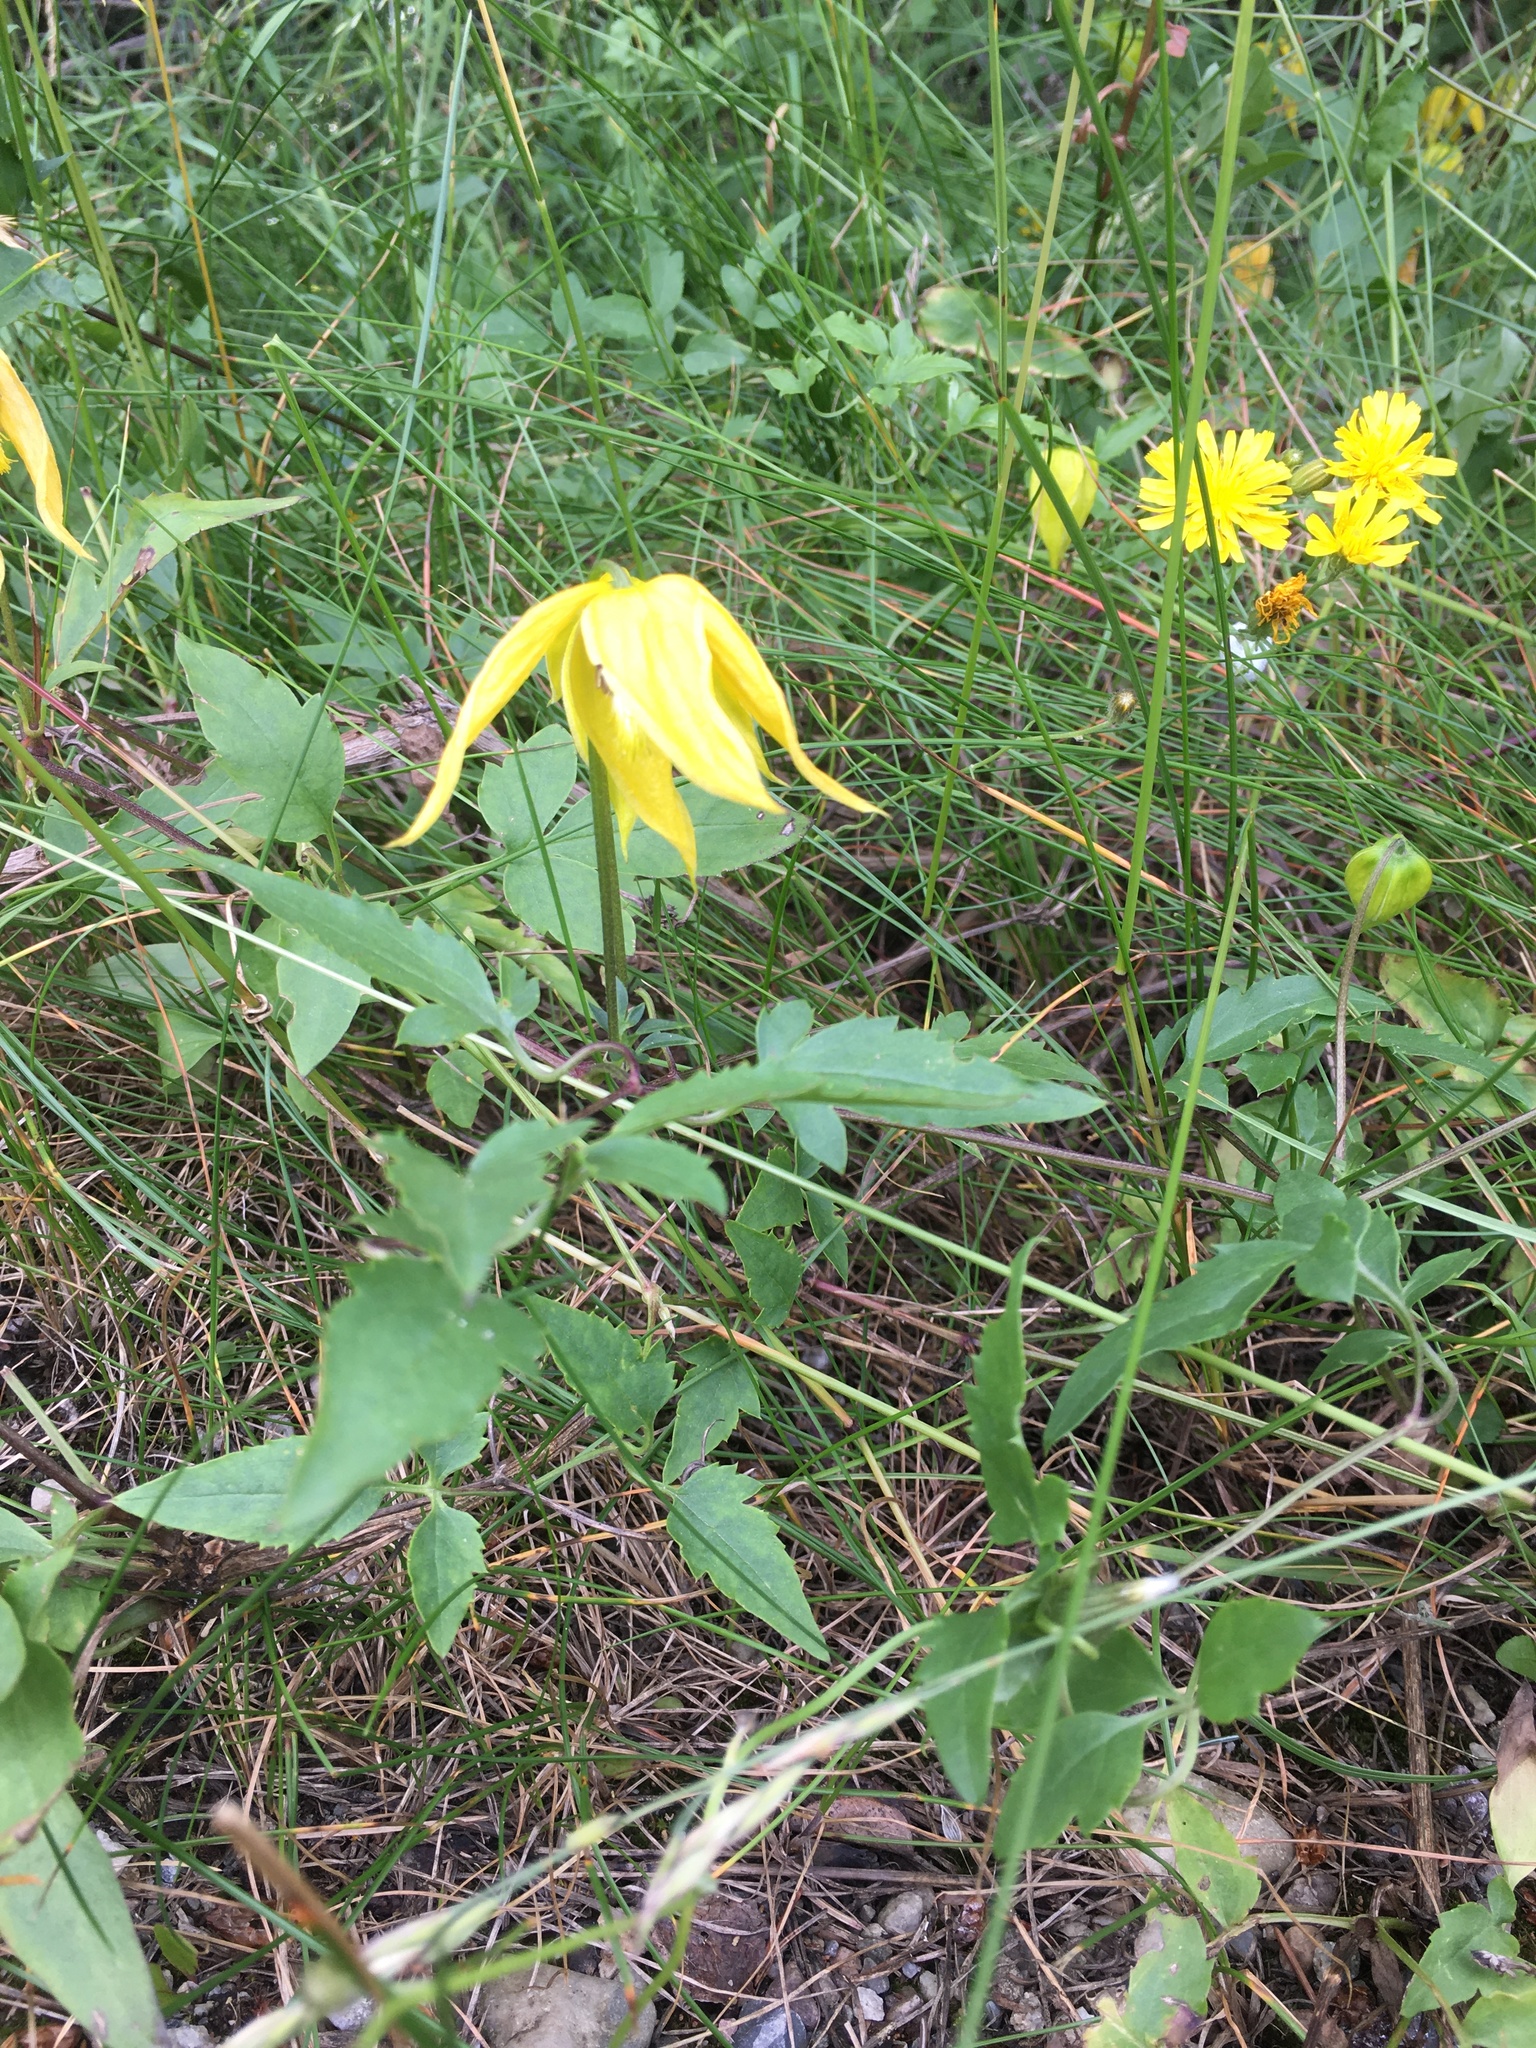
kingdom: Plantae
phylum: Tracheophyta
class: Magnoliopsida
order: Ranunculales
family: Ranunculaceae
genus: Clematis
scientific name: Clematis tangutica
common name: Orange-peel clematis
